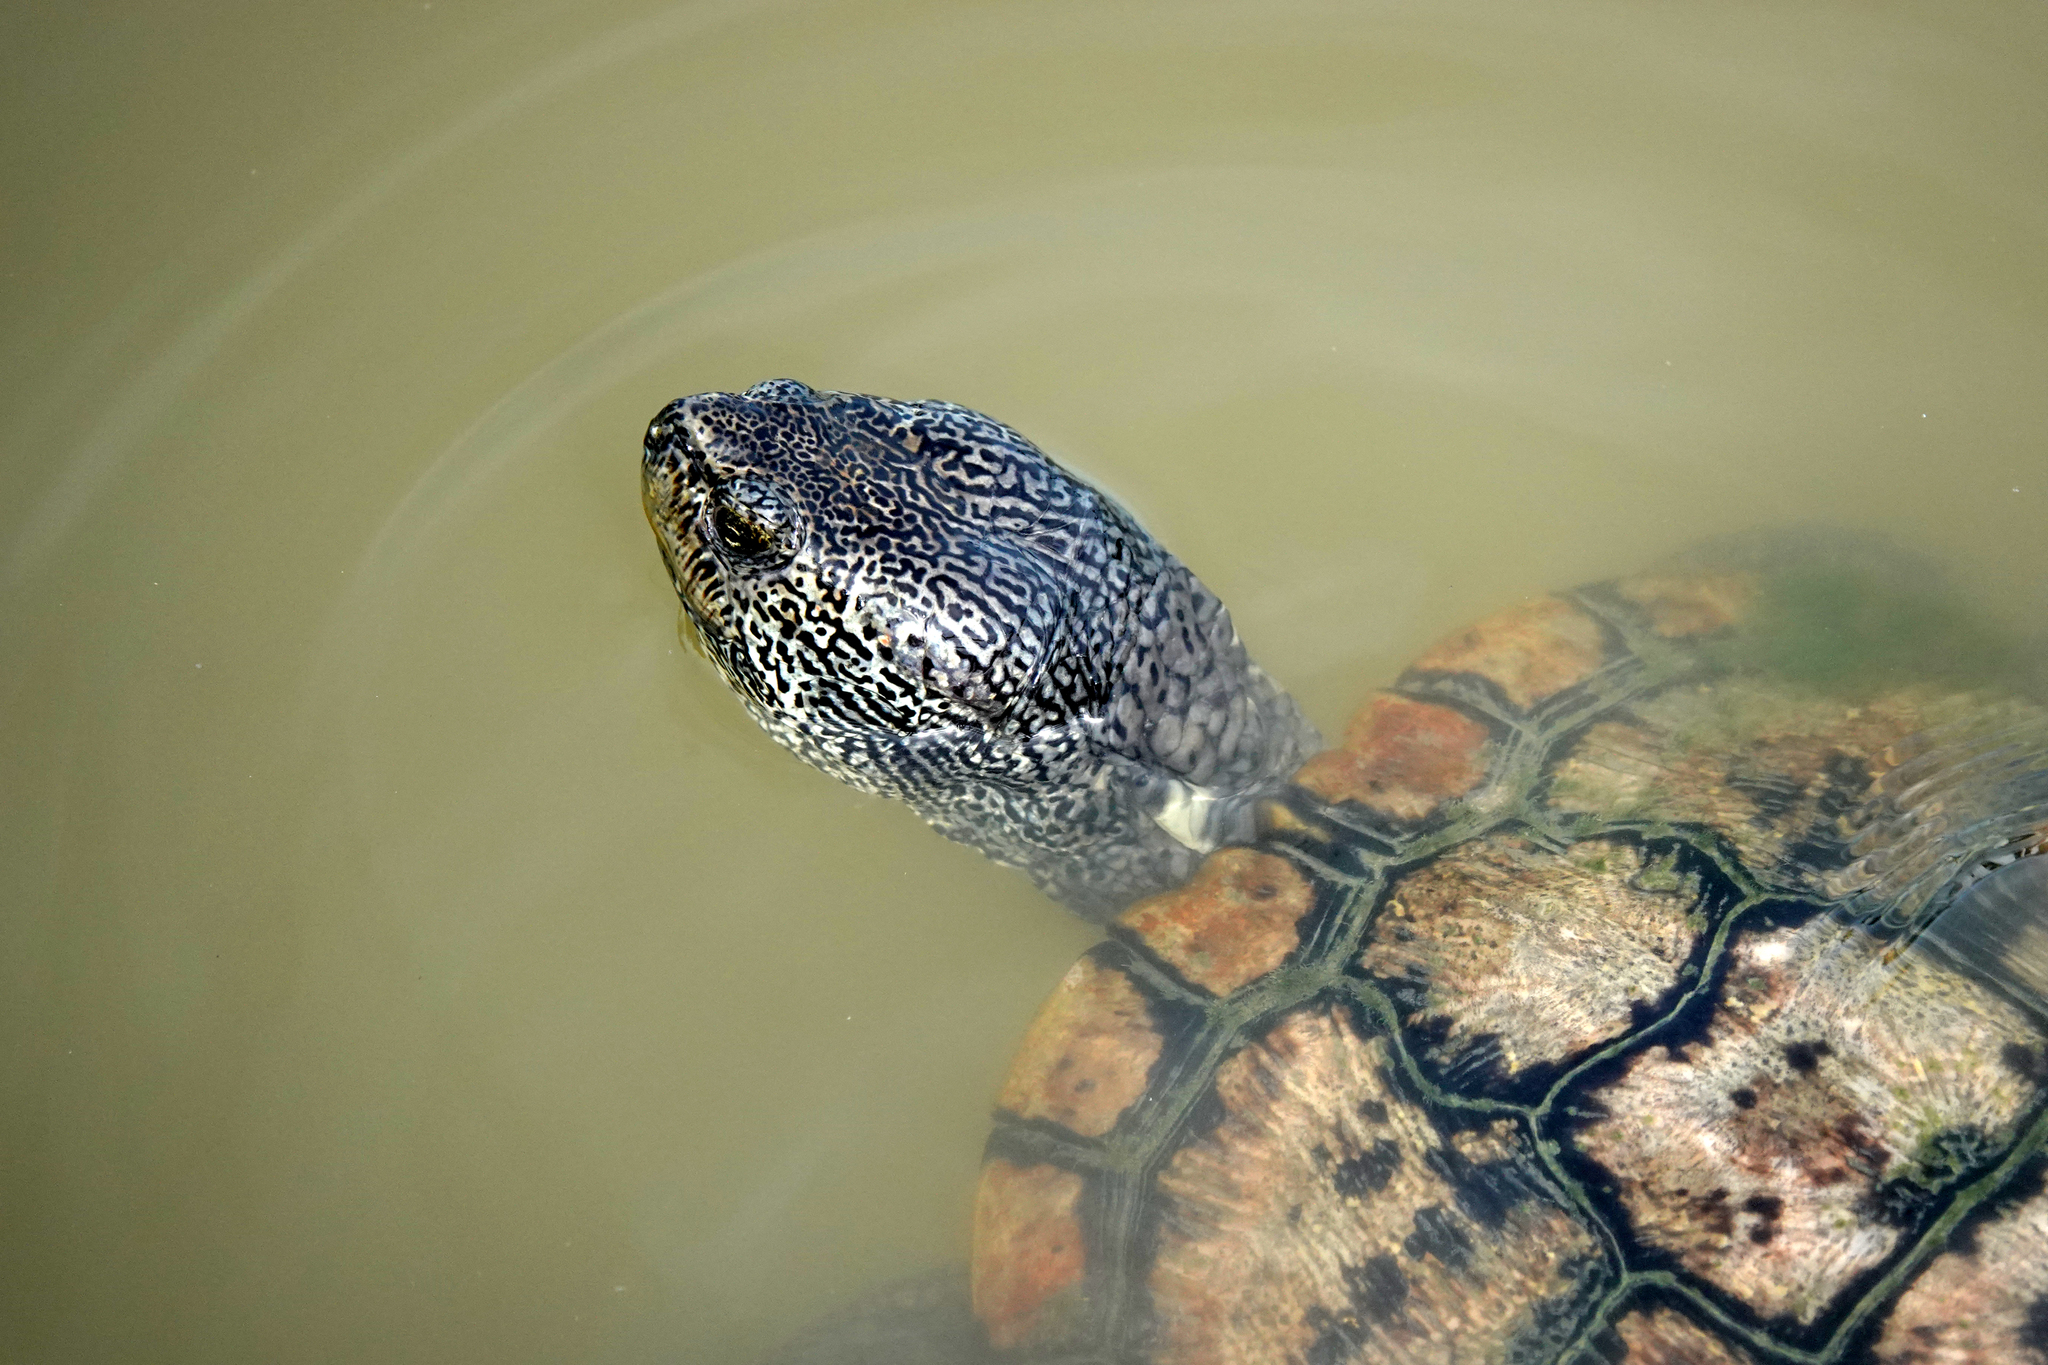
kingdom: Animalia
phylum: Chordata
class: Testudines
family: Emydidae
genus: Trachemys
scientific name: Trachemys scripta
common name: Slider
